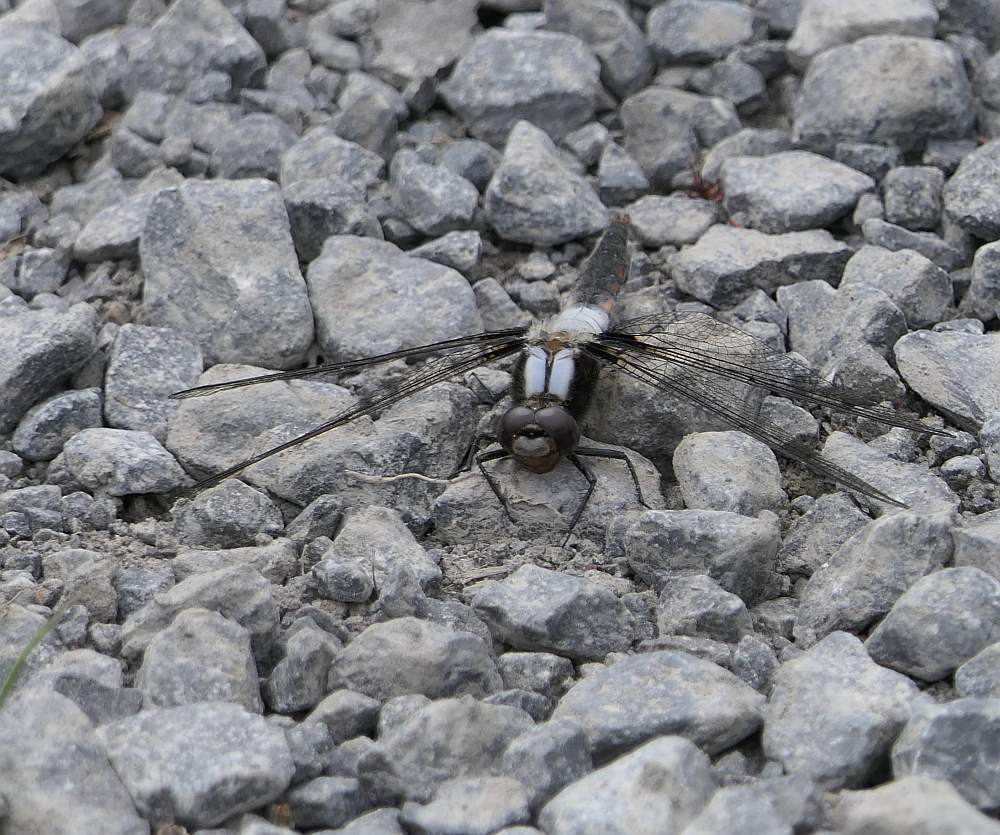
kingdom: Animalia
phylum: Arthropoda
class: Insecta
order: Odonata
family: Libellulidae
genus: Ladona
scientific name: Ladona julia
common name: Chalk-fronted corporal
